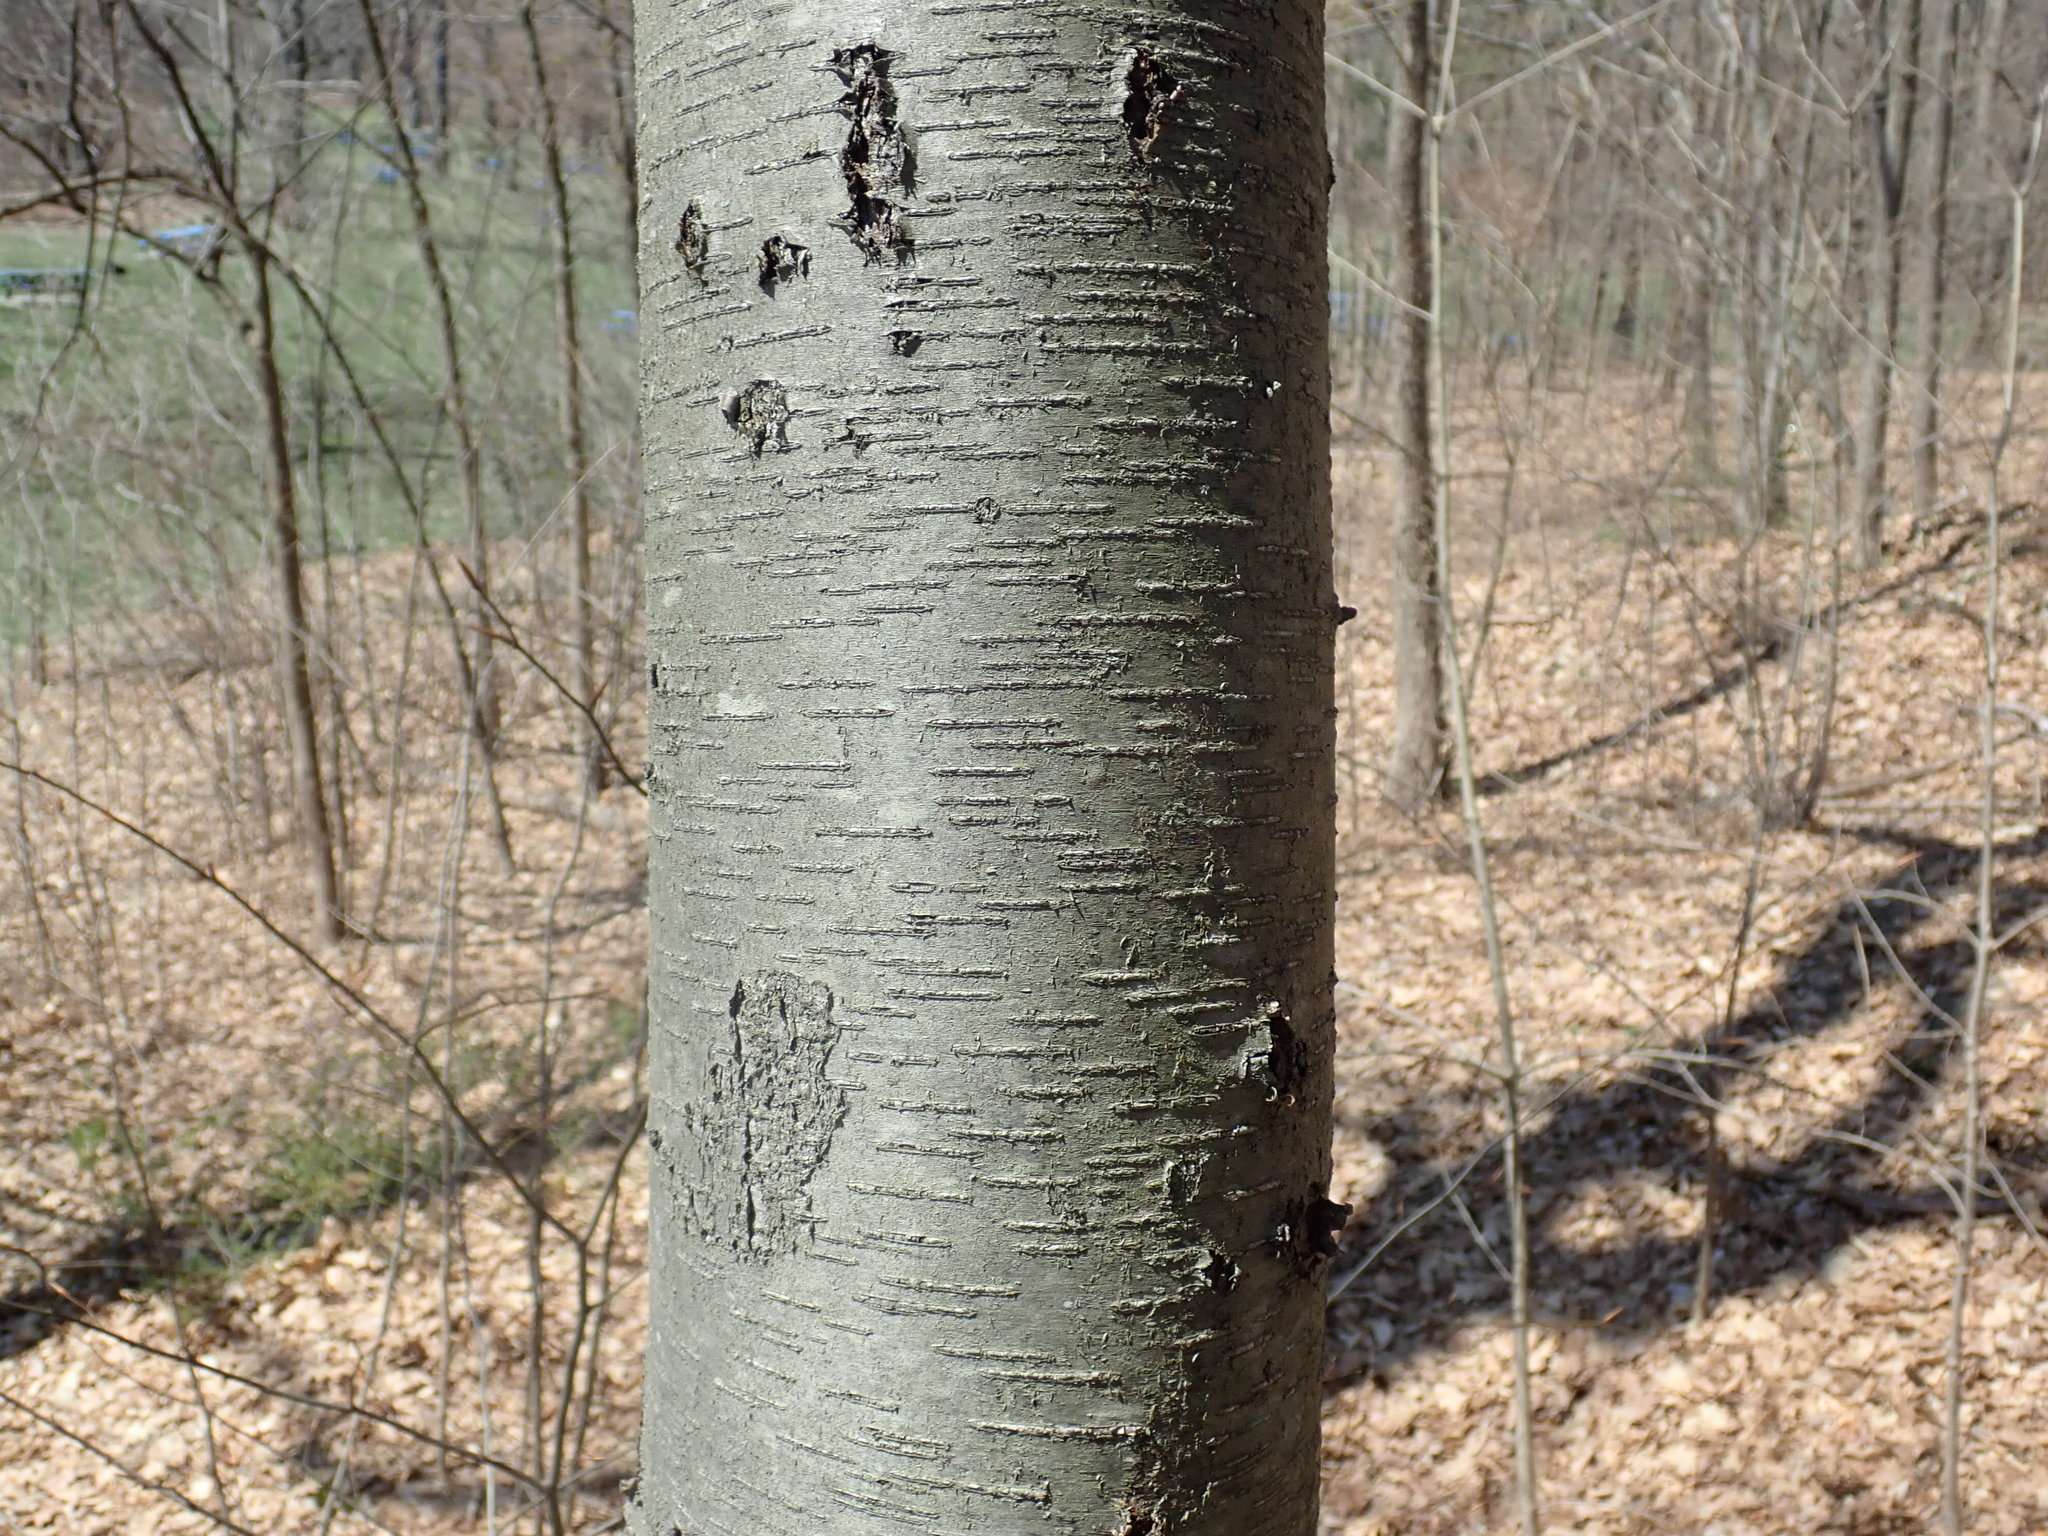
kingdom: Plantae
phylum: Tracheophyta
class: Magnoliopsida
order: Fagales
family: Betulaceae
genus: Betula
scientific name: Betula lenta
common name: Black birch
